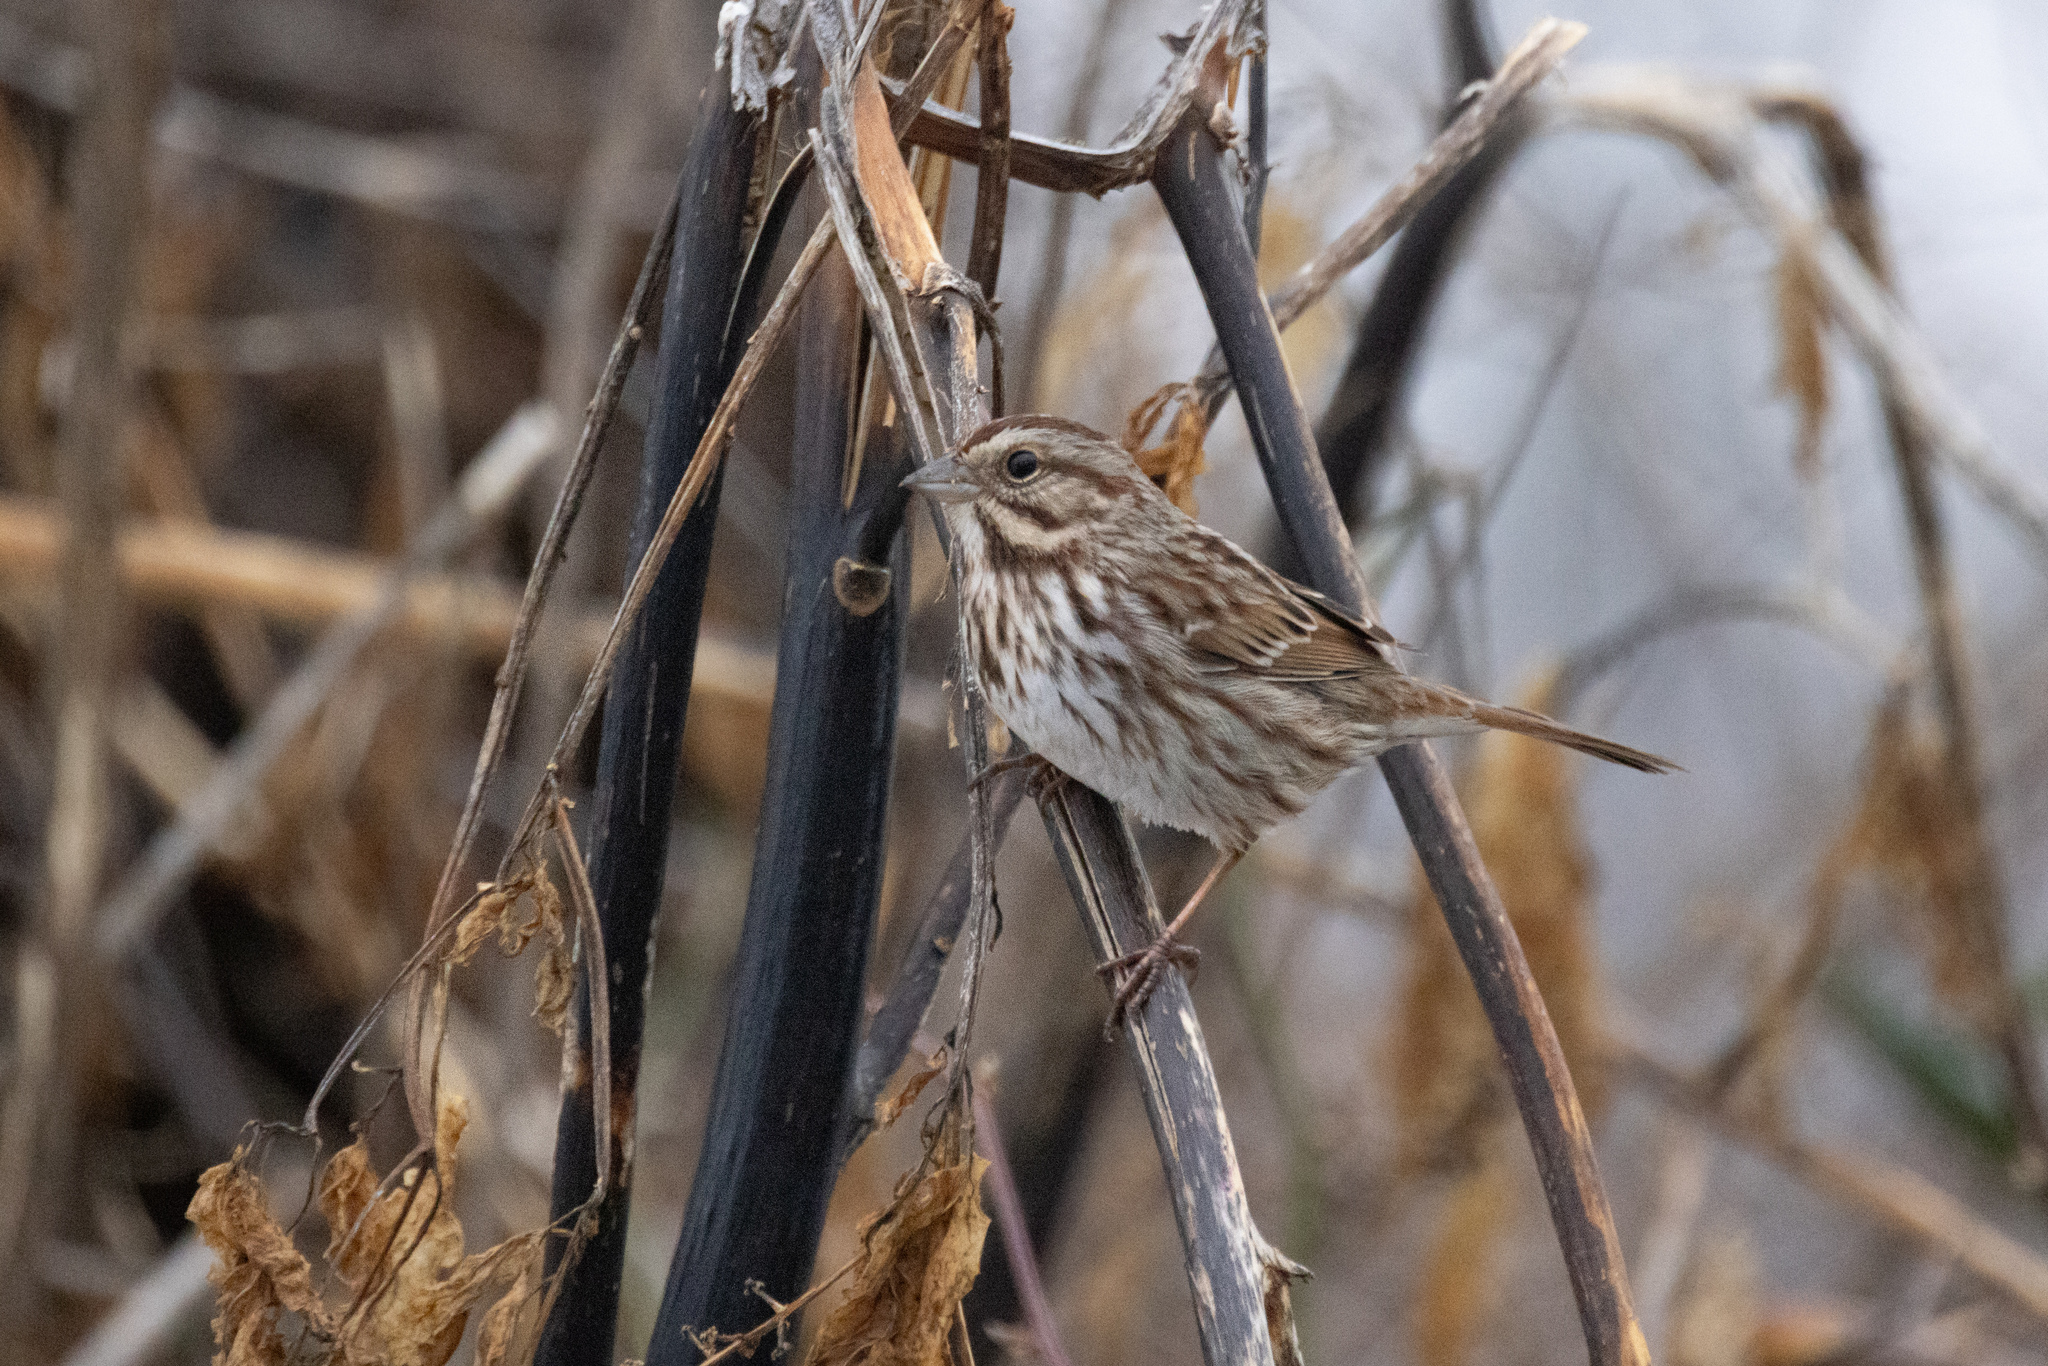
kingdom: Animalia
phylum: Chordata
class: Aves
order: Passeriformes
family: Passerellidae
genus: Melospiza
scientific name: Melospiza melodia
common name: Song sparrow
